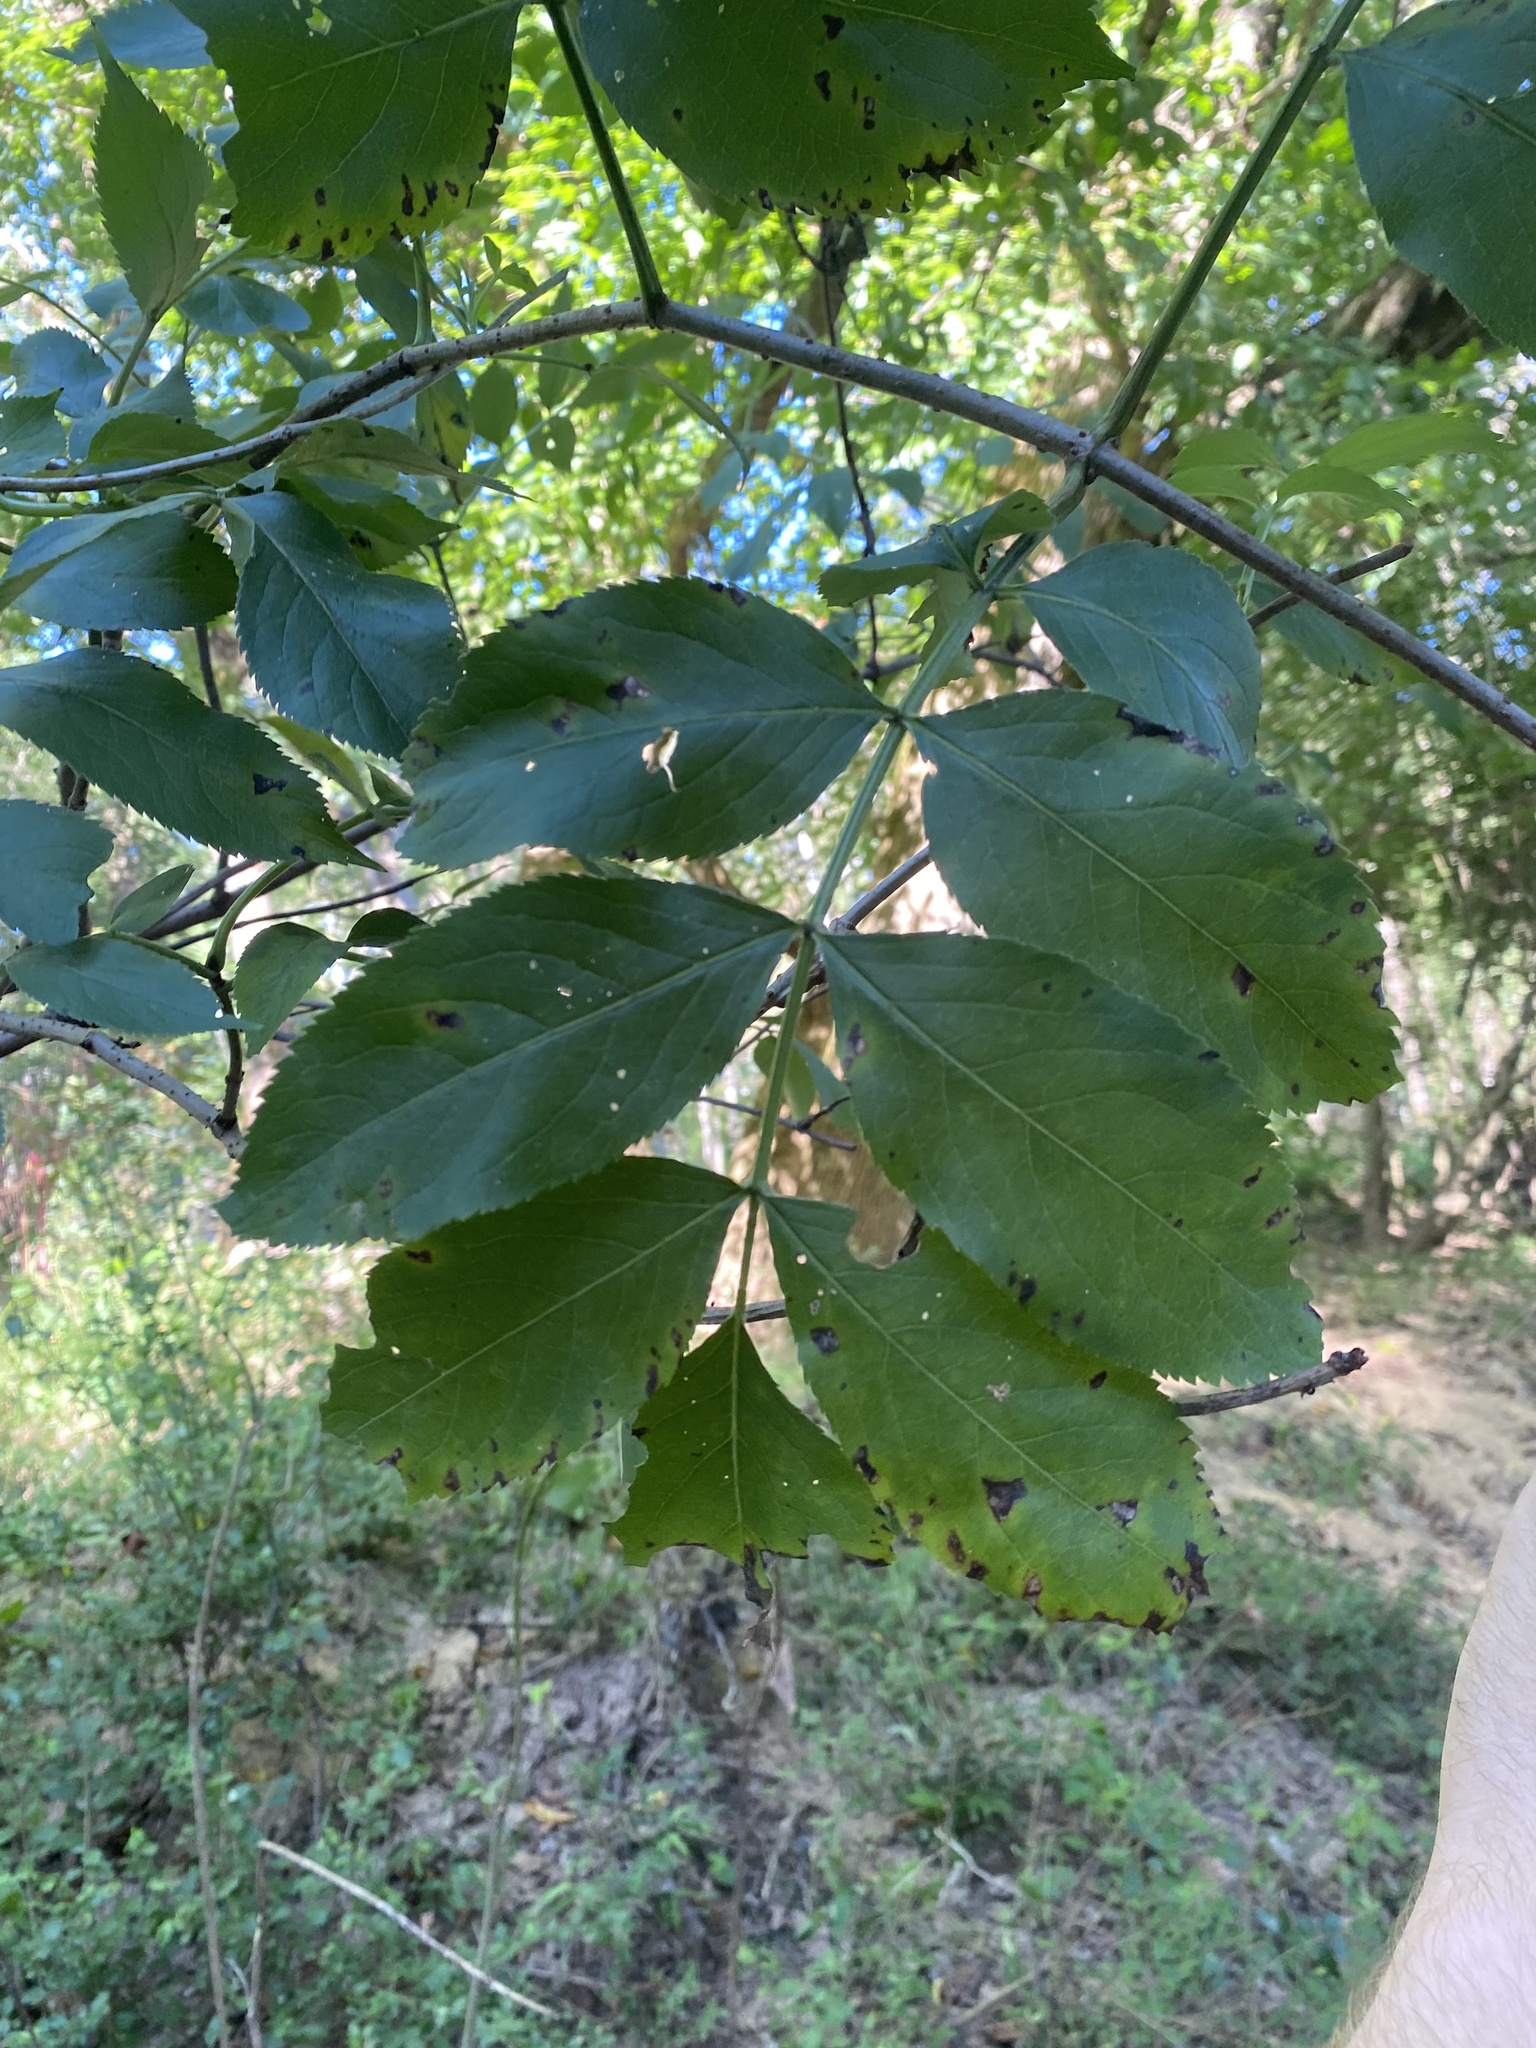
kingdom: Plantae
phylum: Tracheophyta
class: Magnoliopsida
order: Dipsacales
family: Viburnaceae
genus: Sambucus
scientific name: Sambucus canadensis
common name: American elder
